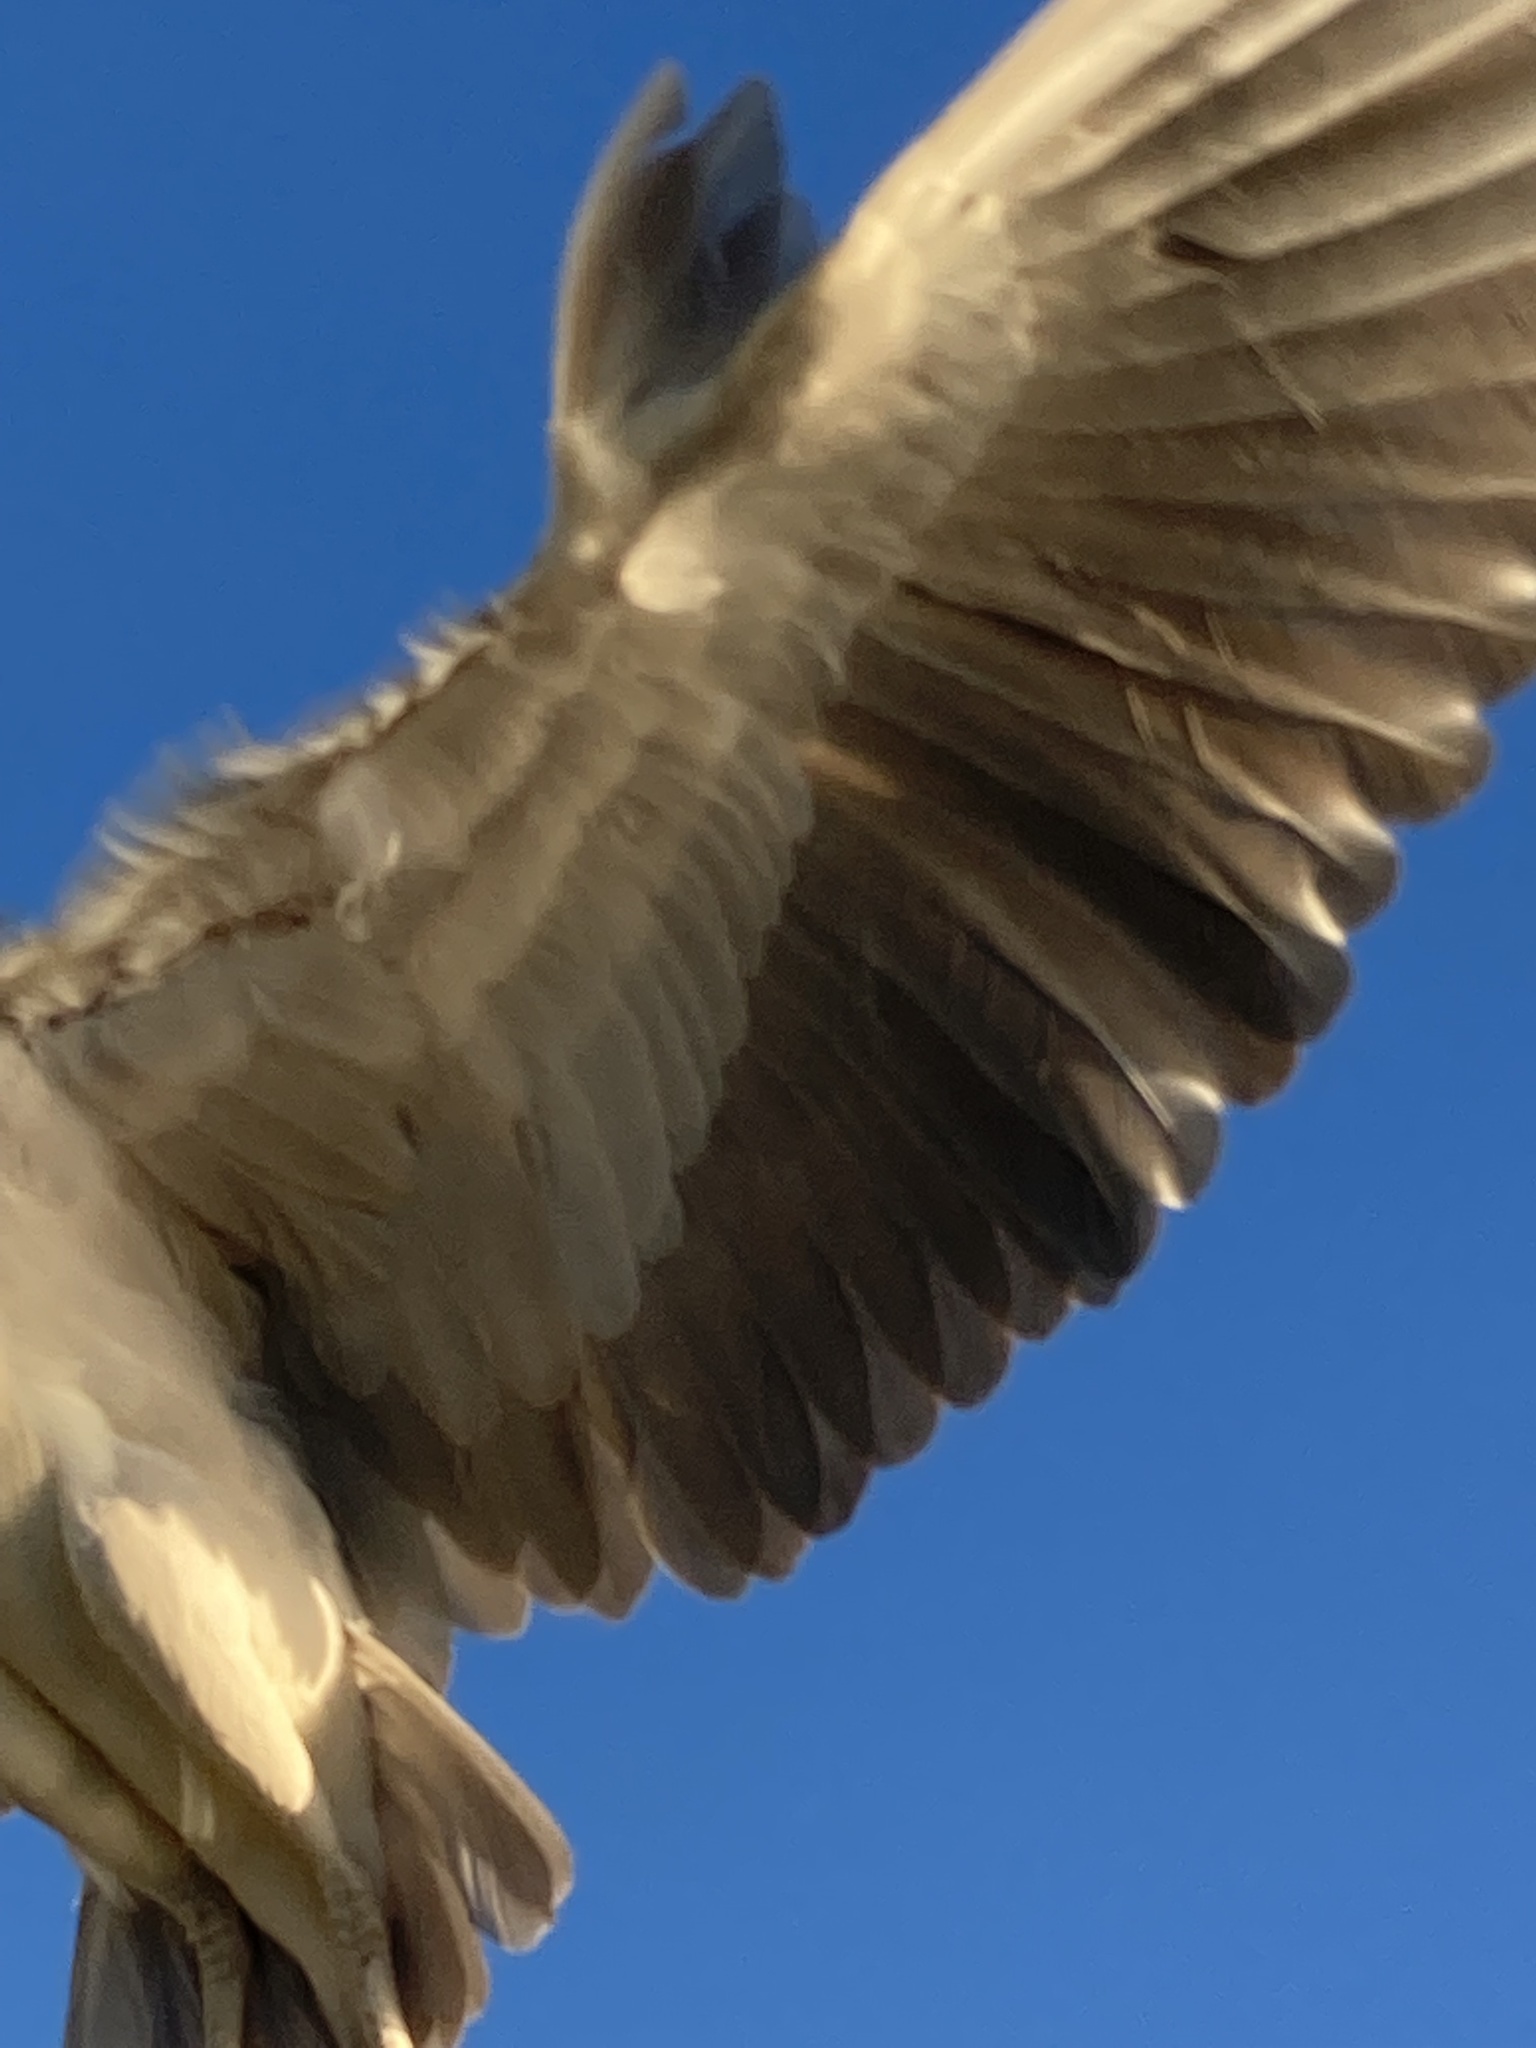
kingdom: Animalia
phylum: Chordata
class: Aves
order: Pelecaniformes
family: Ardeidae
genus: Nycticorax
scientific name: Nycticorax nycticorax
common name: Black-crowned night heron
